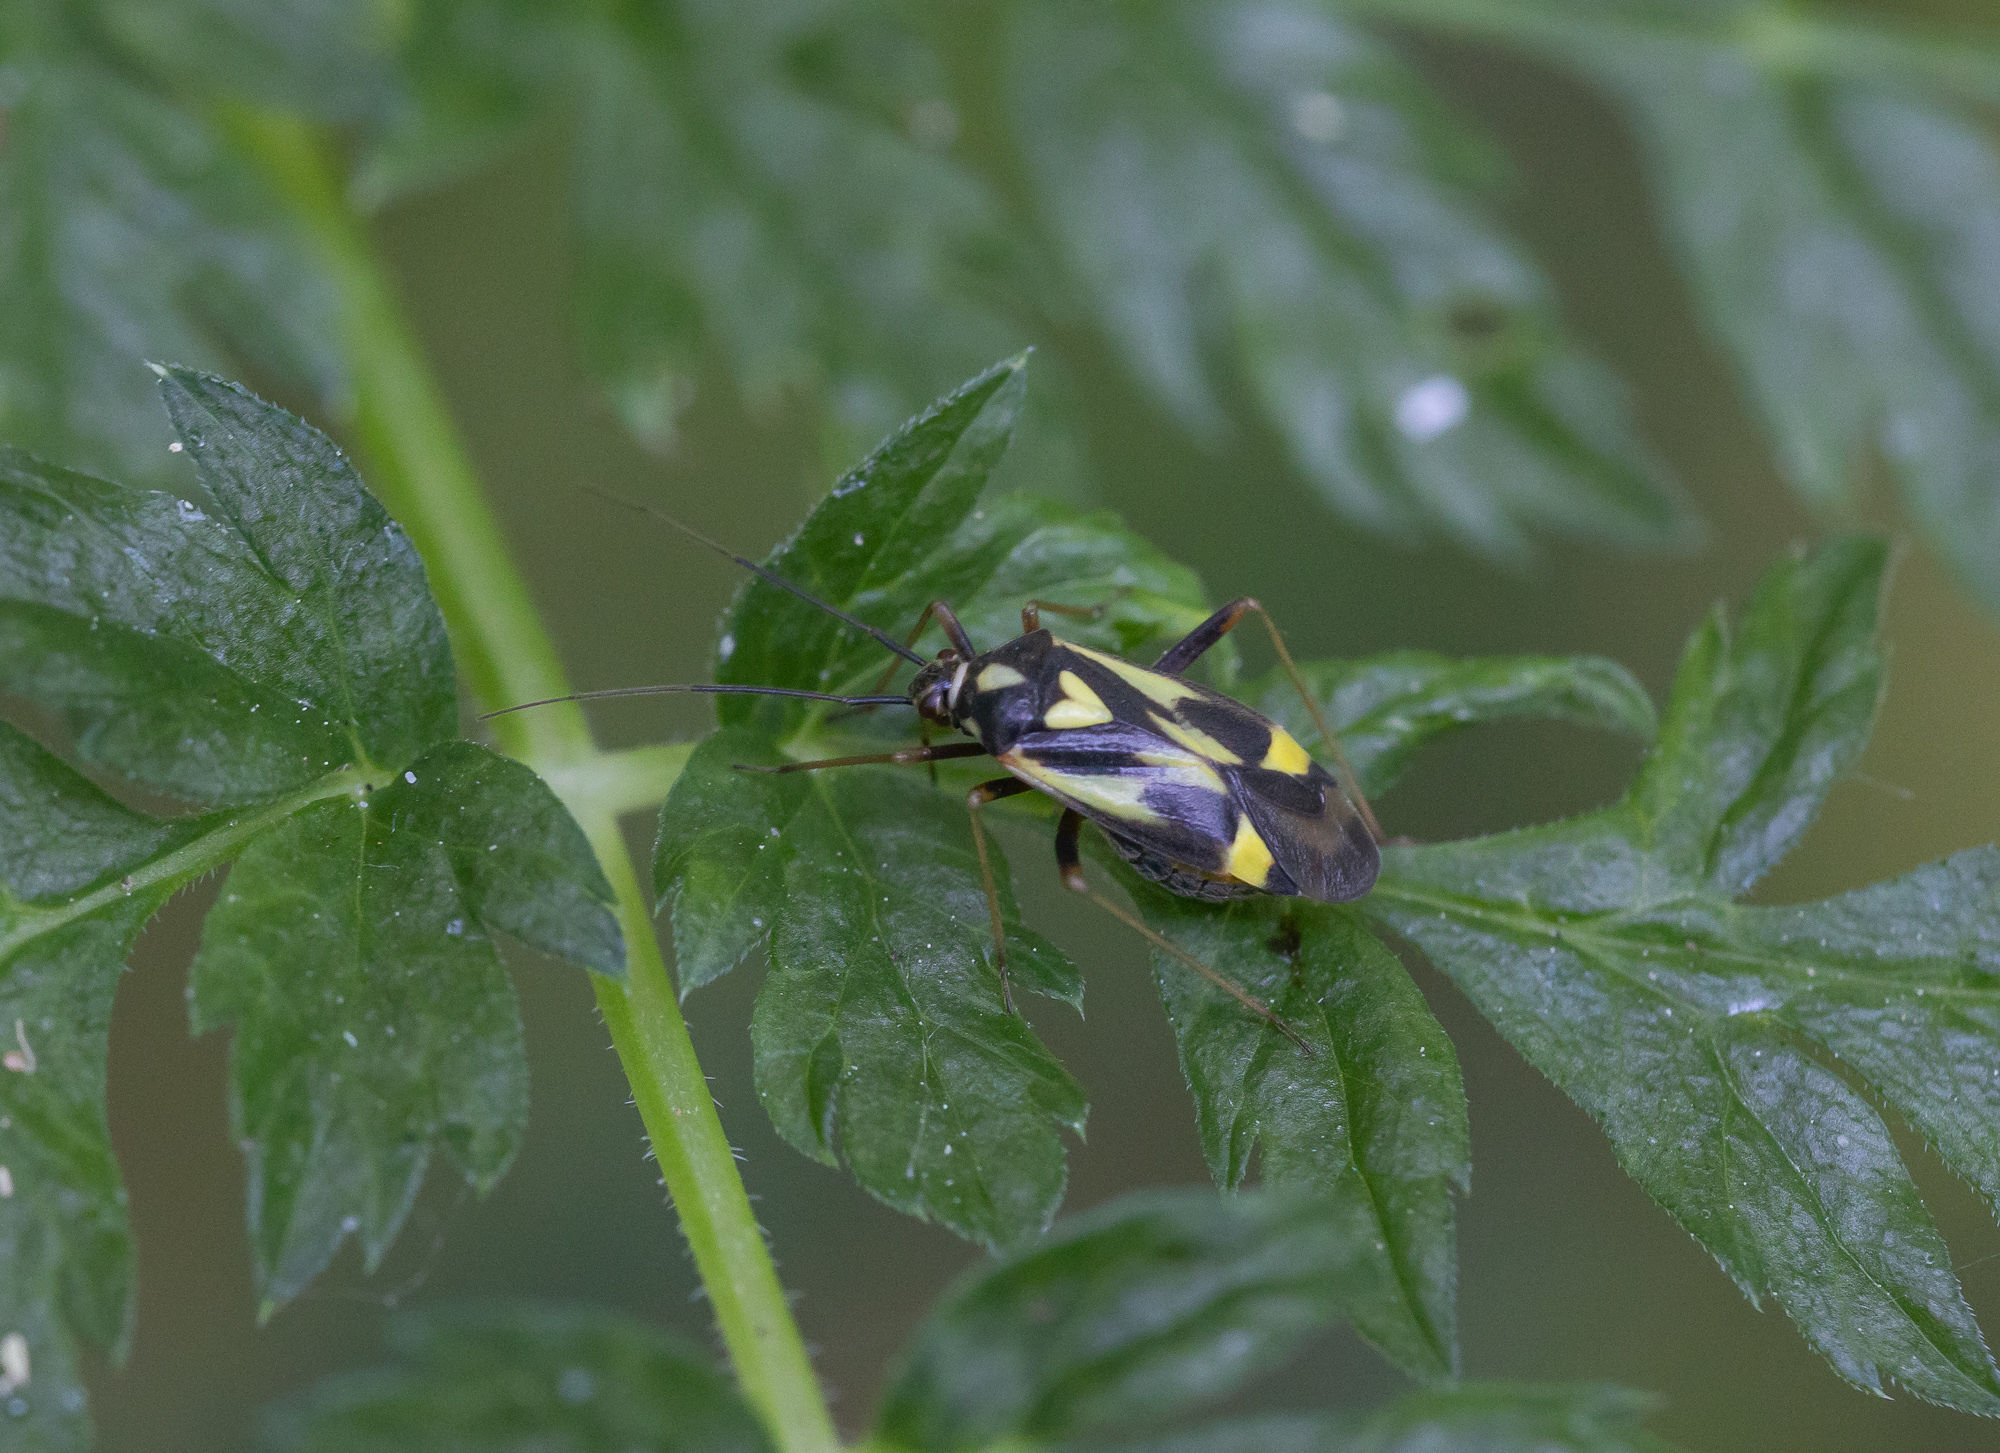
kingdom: Animalia
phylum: Arthropoda
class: Insecta
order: Hemiptera
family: Miridae
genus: Grypocoris
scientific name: Grypocoris sexguttatus
